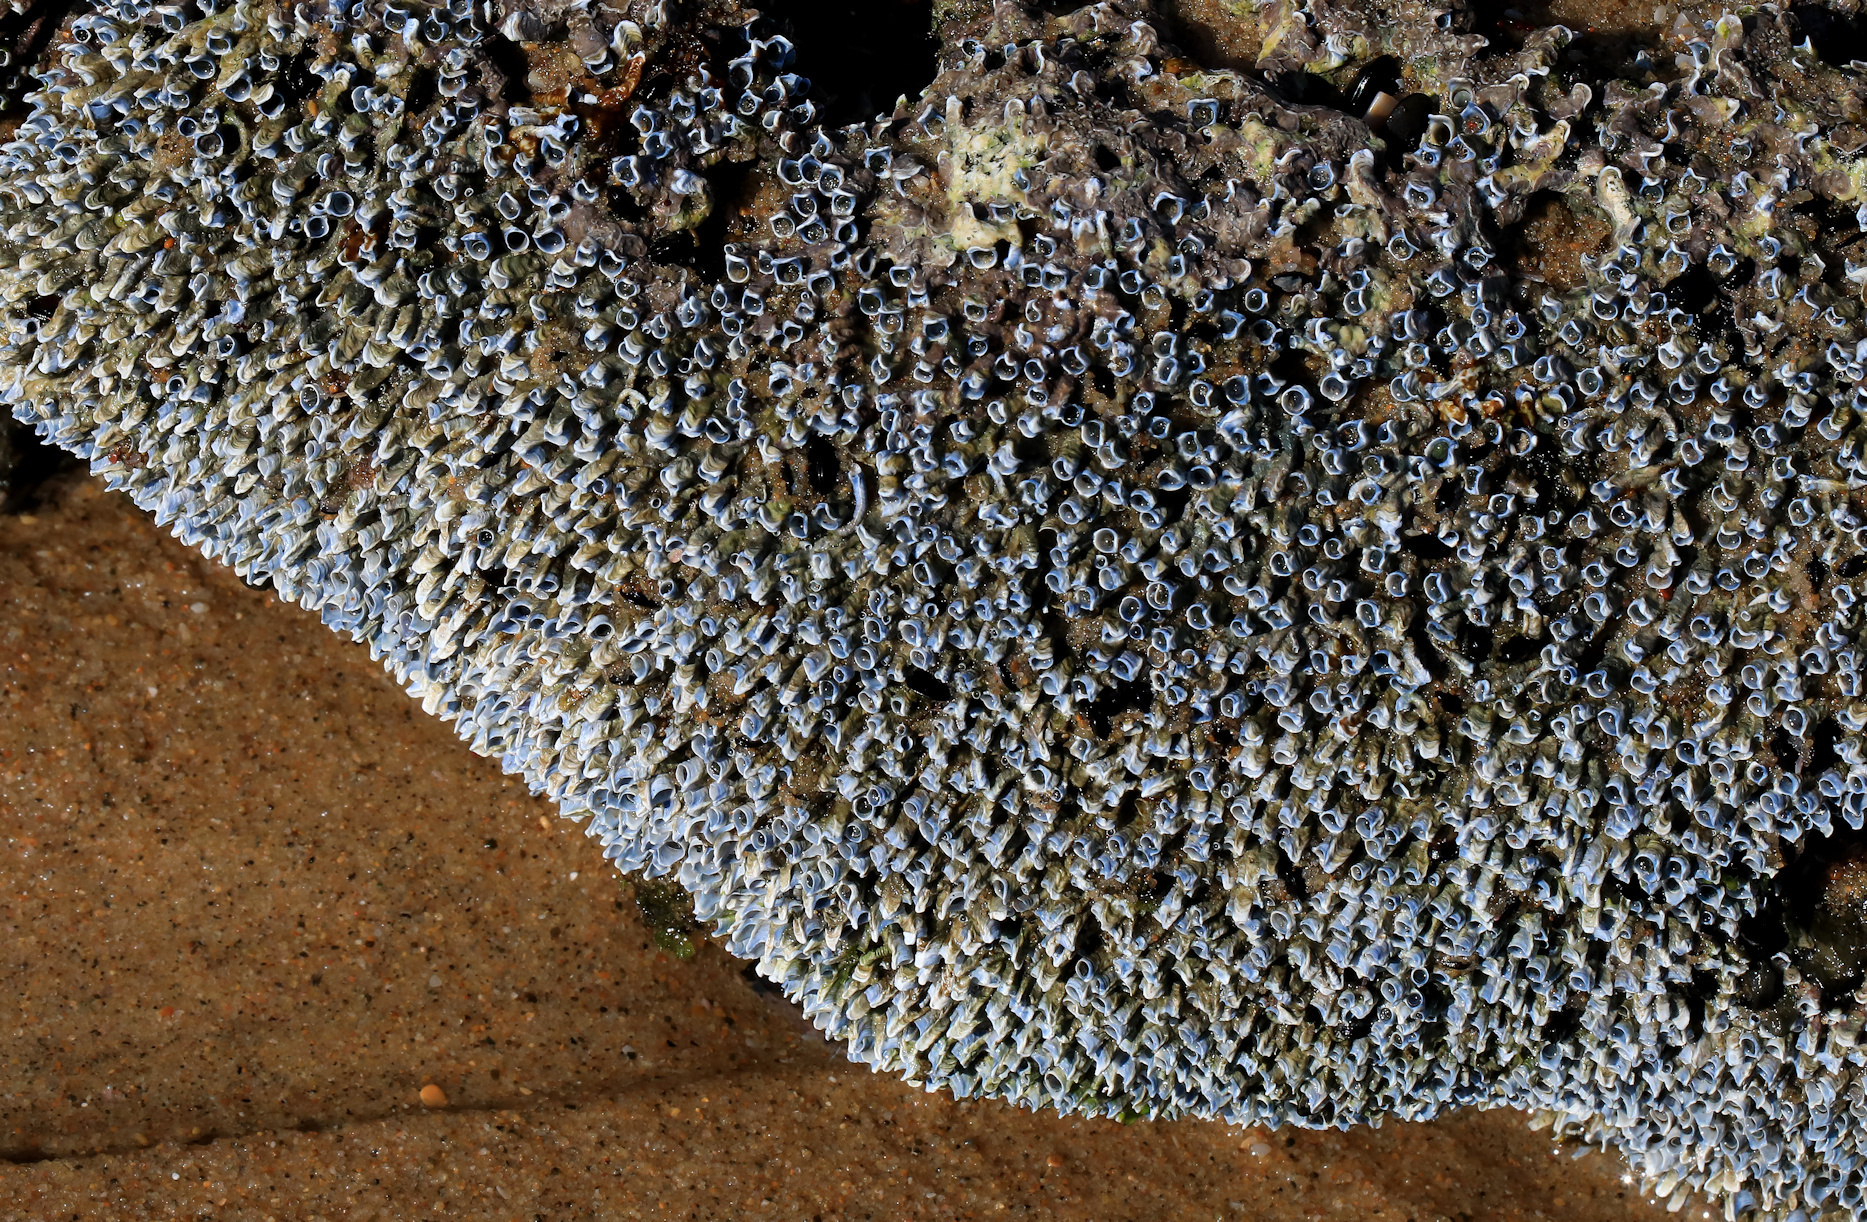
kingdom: Animalia
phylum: Annelida
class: Polychaeta
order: Sabellida
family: Serpulidae
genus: Spirobranchus
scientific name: Spirobranchus kraussii
